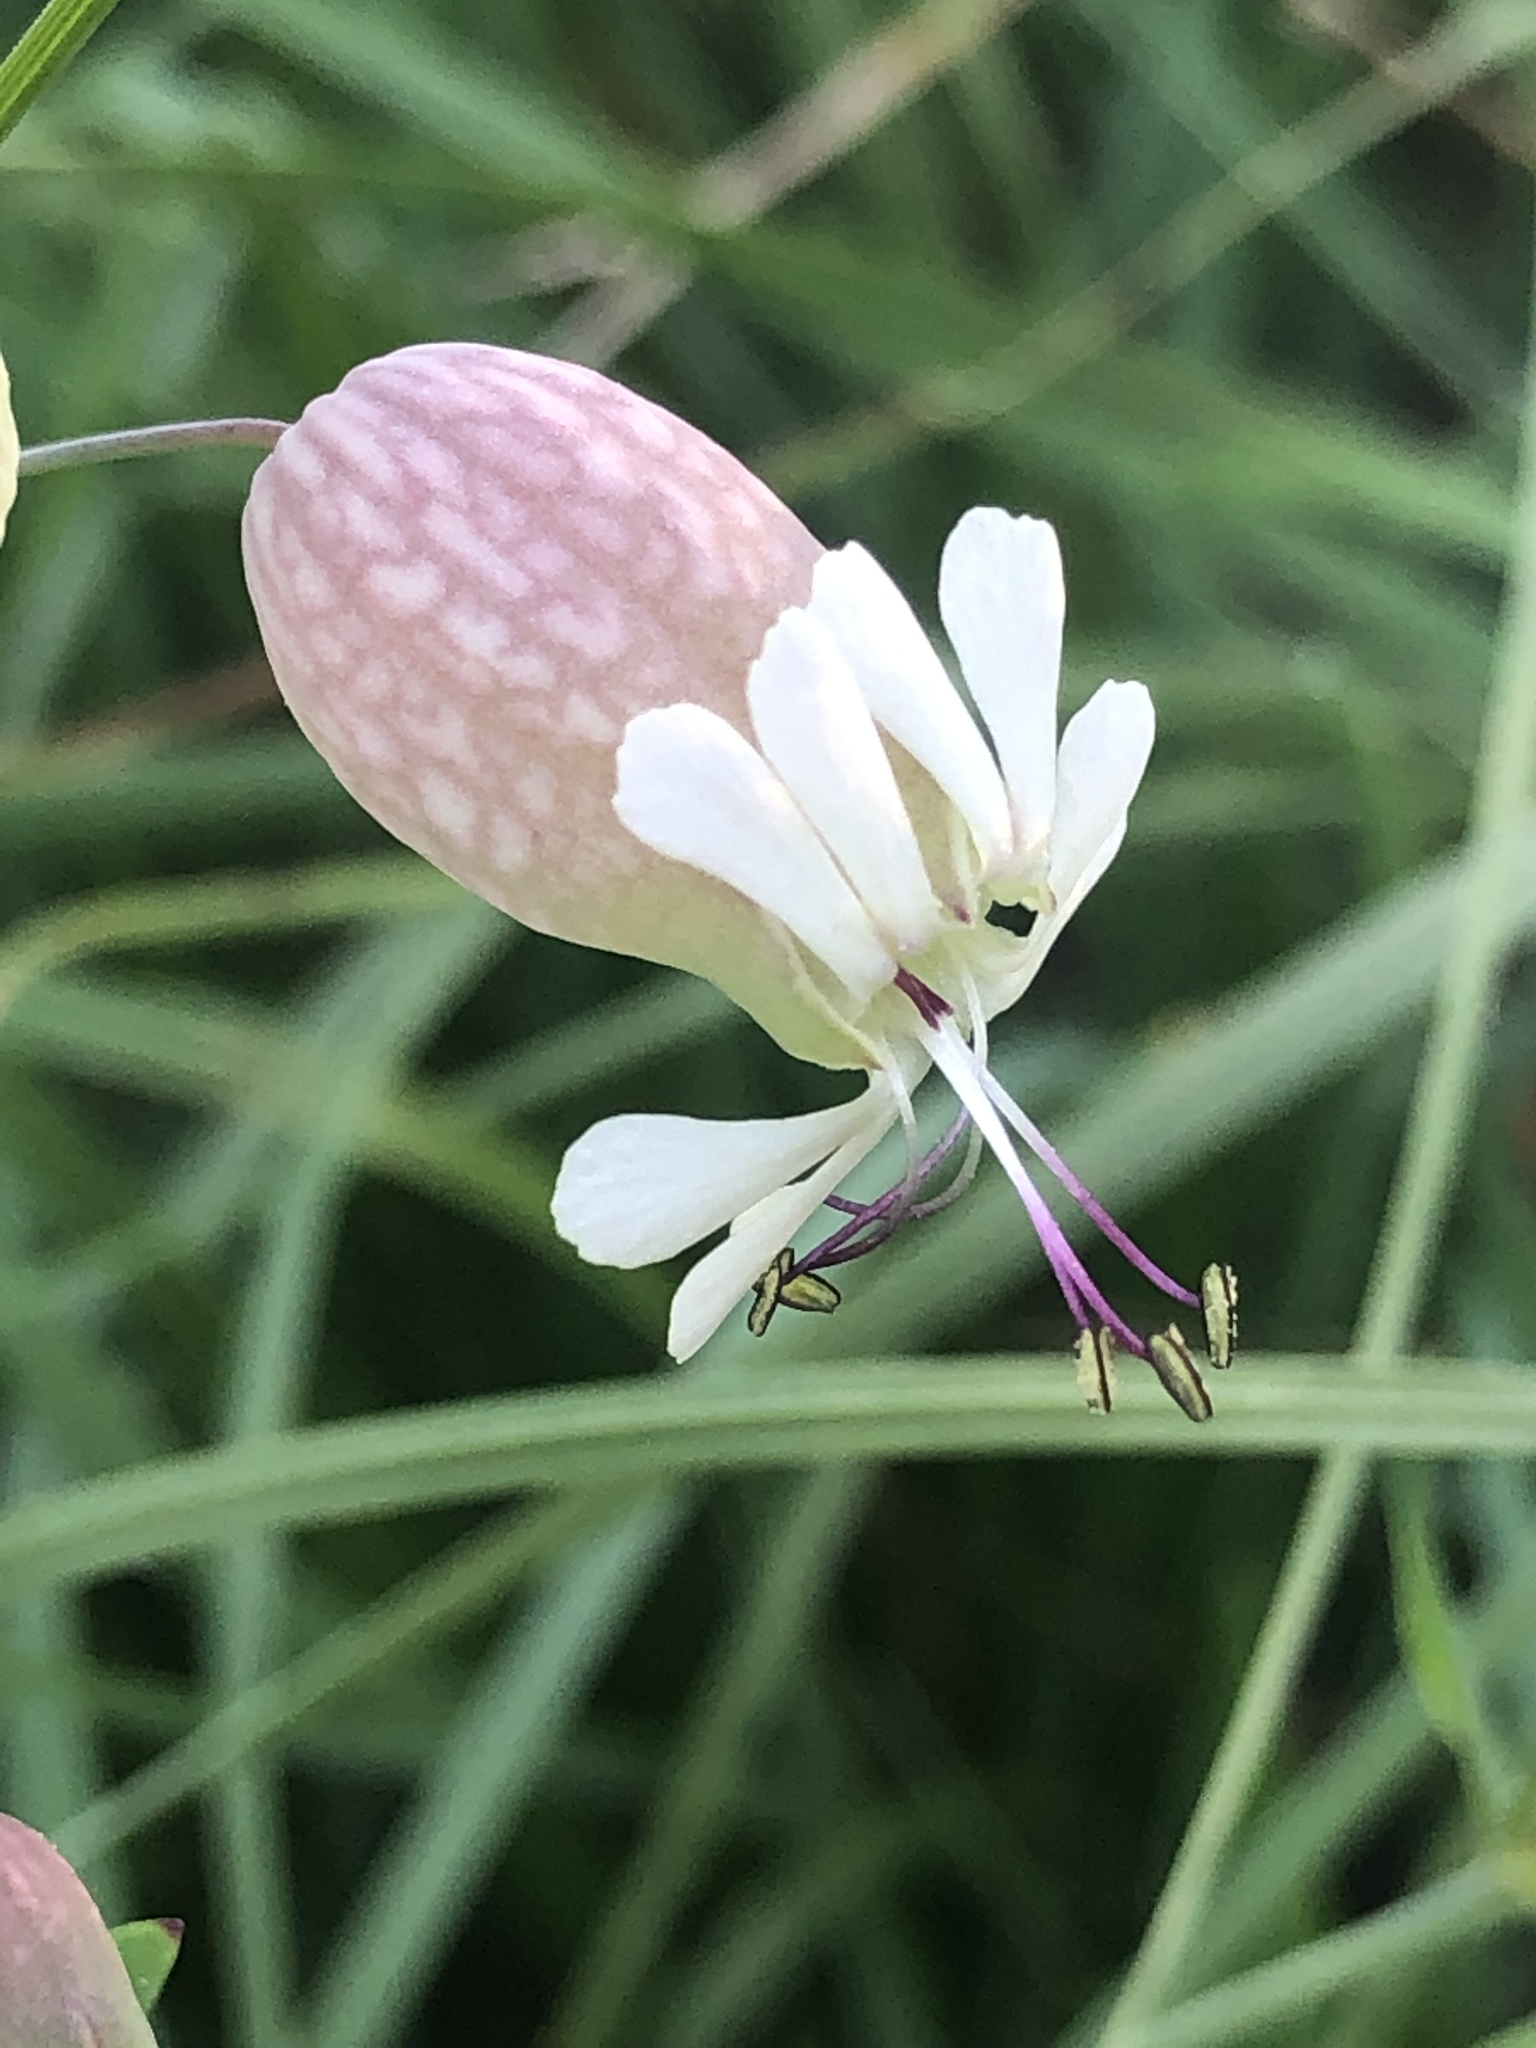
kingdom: Plantae
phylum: Tracheophyta
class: Magnoliopsida
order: Caryophyllales
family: Caryophyllaceae
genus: Silene
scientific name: Silene vulgaris
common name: Bladder campion
